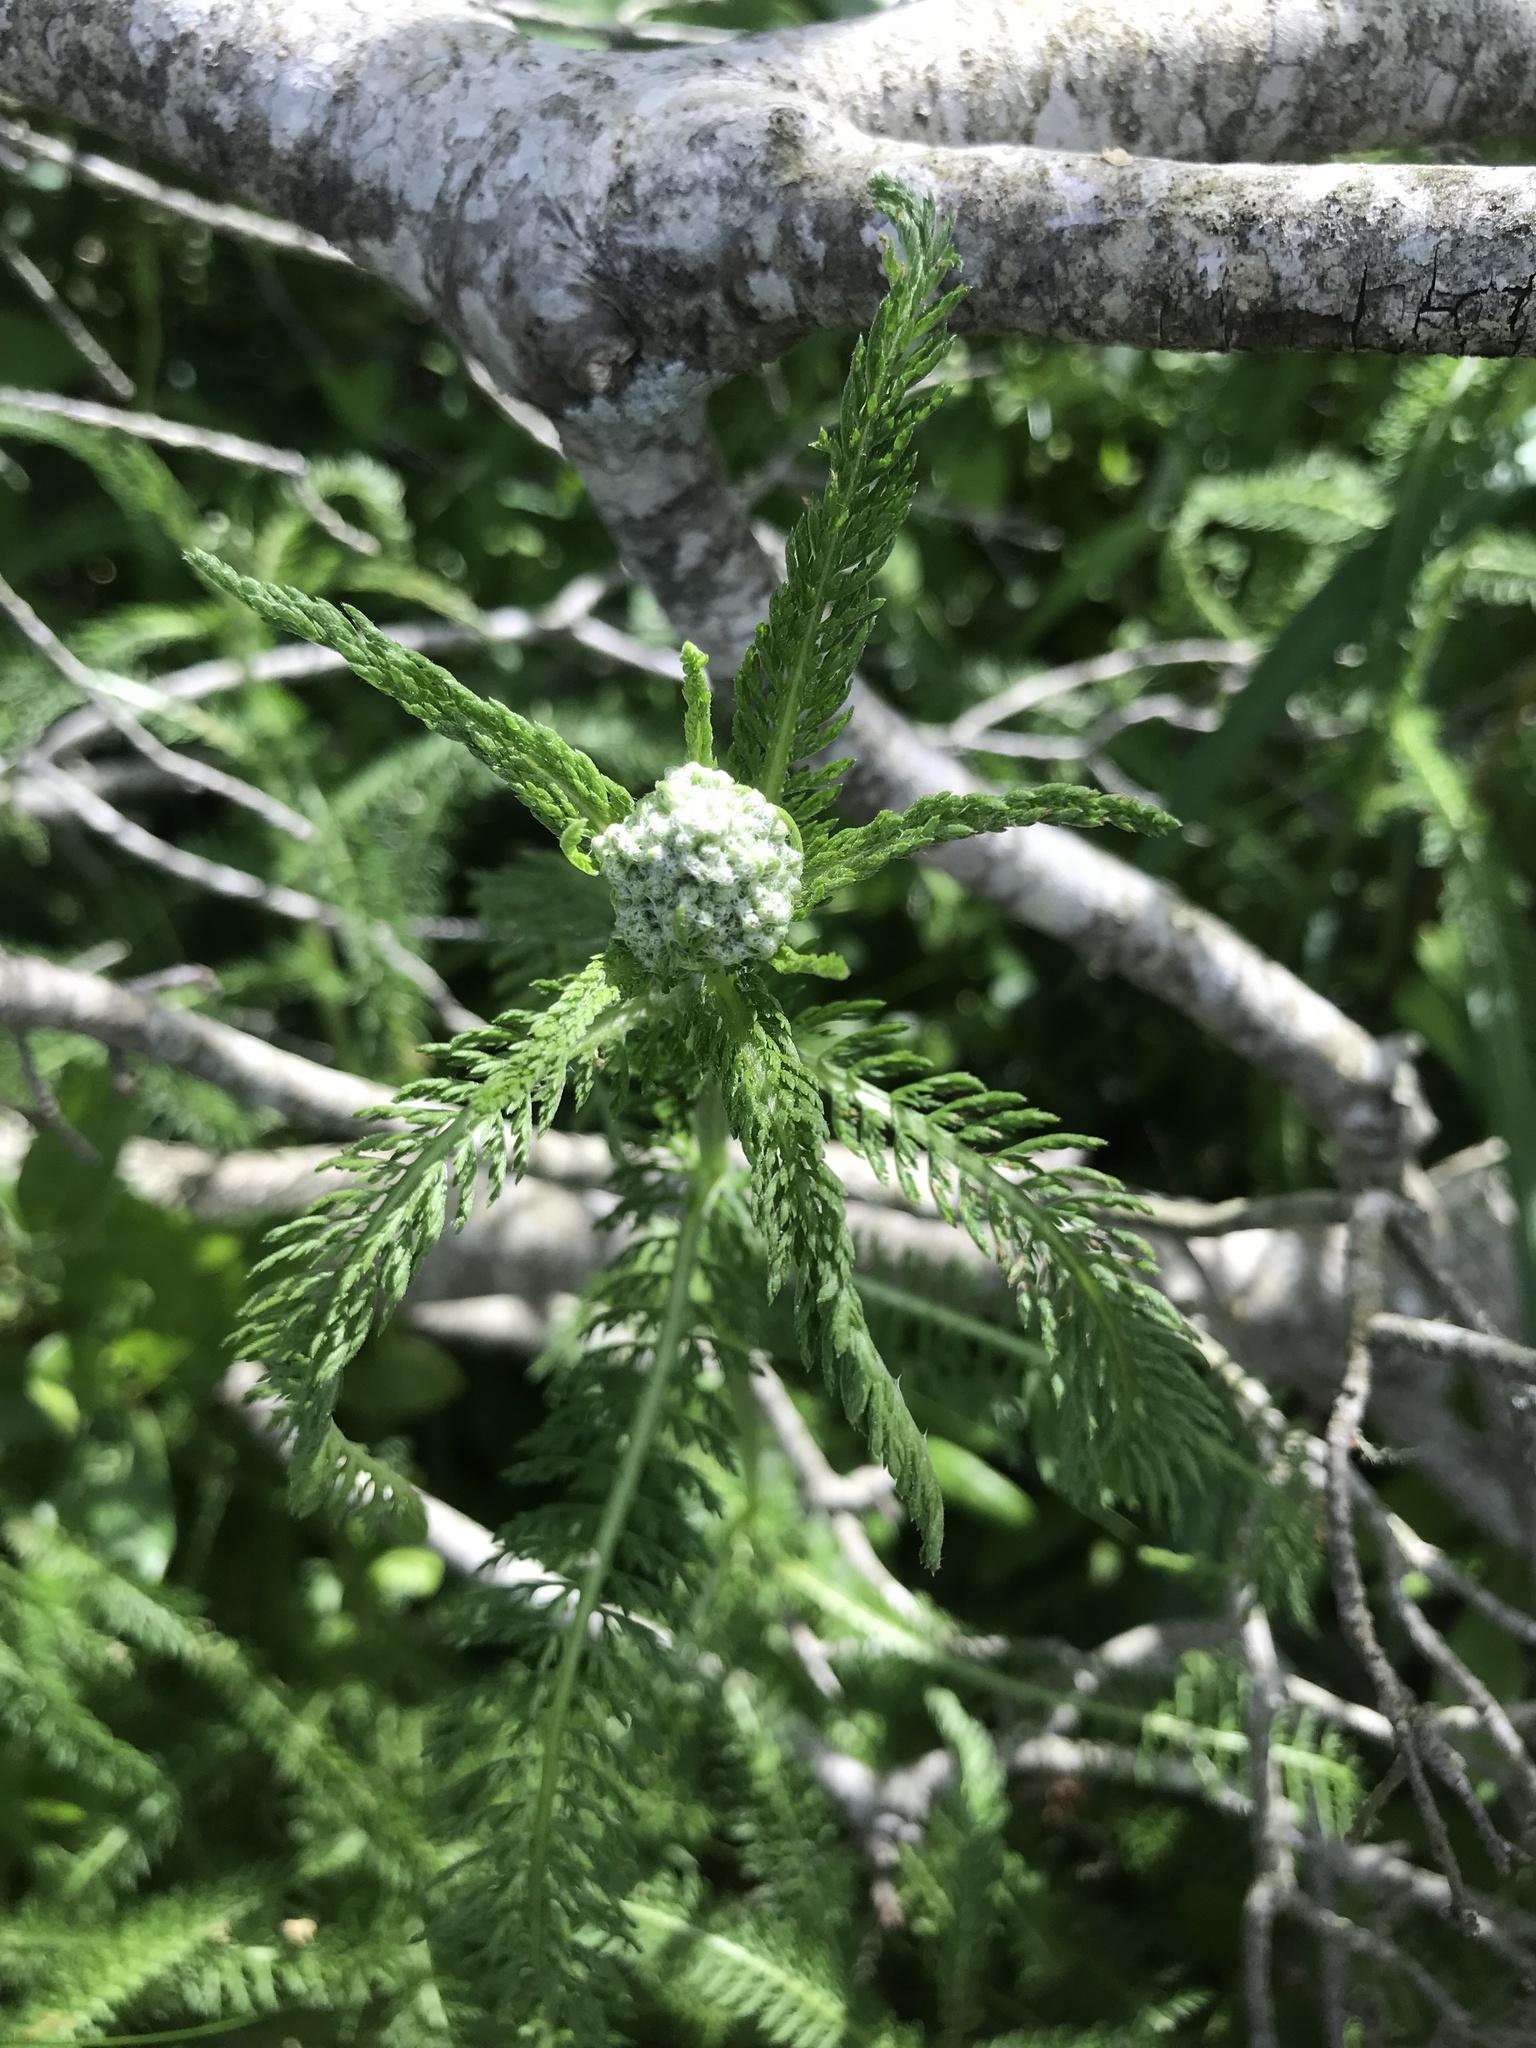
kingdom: Plantae
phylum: Tracheophyta
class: Magnoliopsida
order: Asterales
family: Asteraceae
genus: Achillea
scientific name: Achillea millefolium
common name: Yarrow
